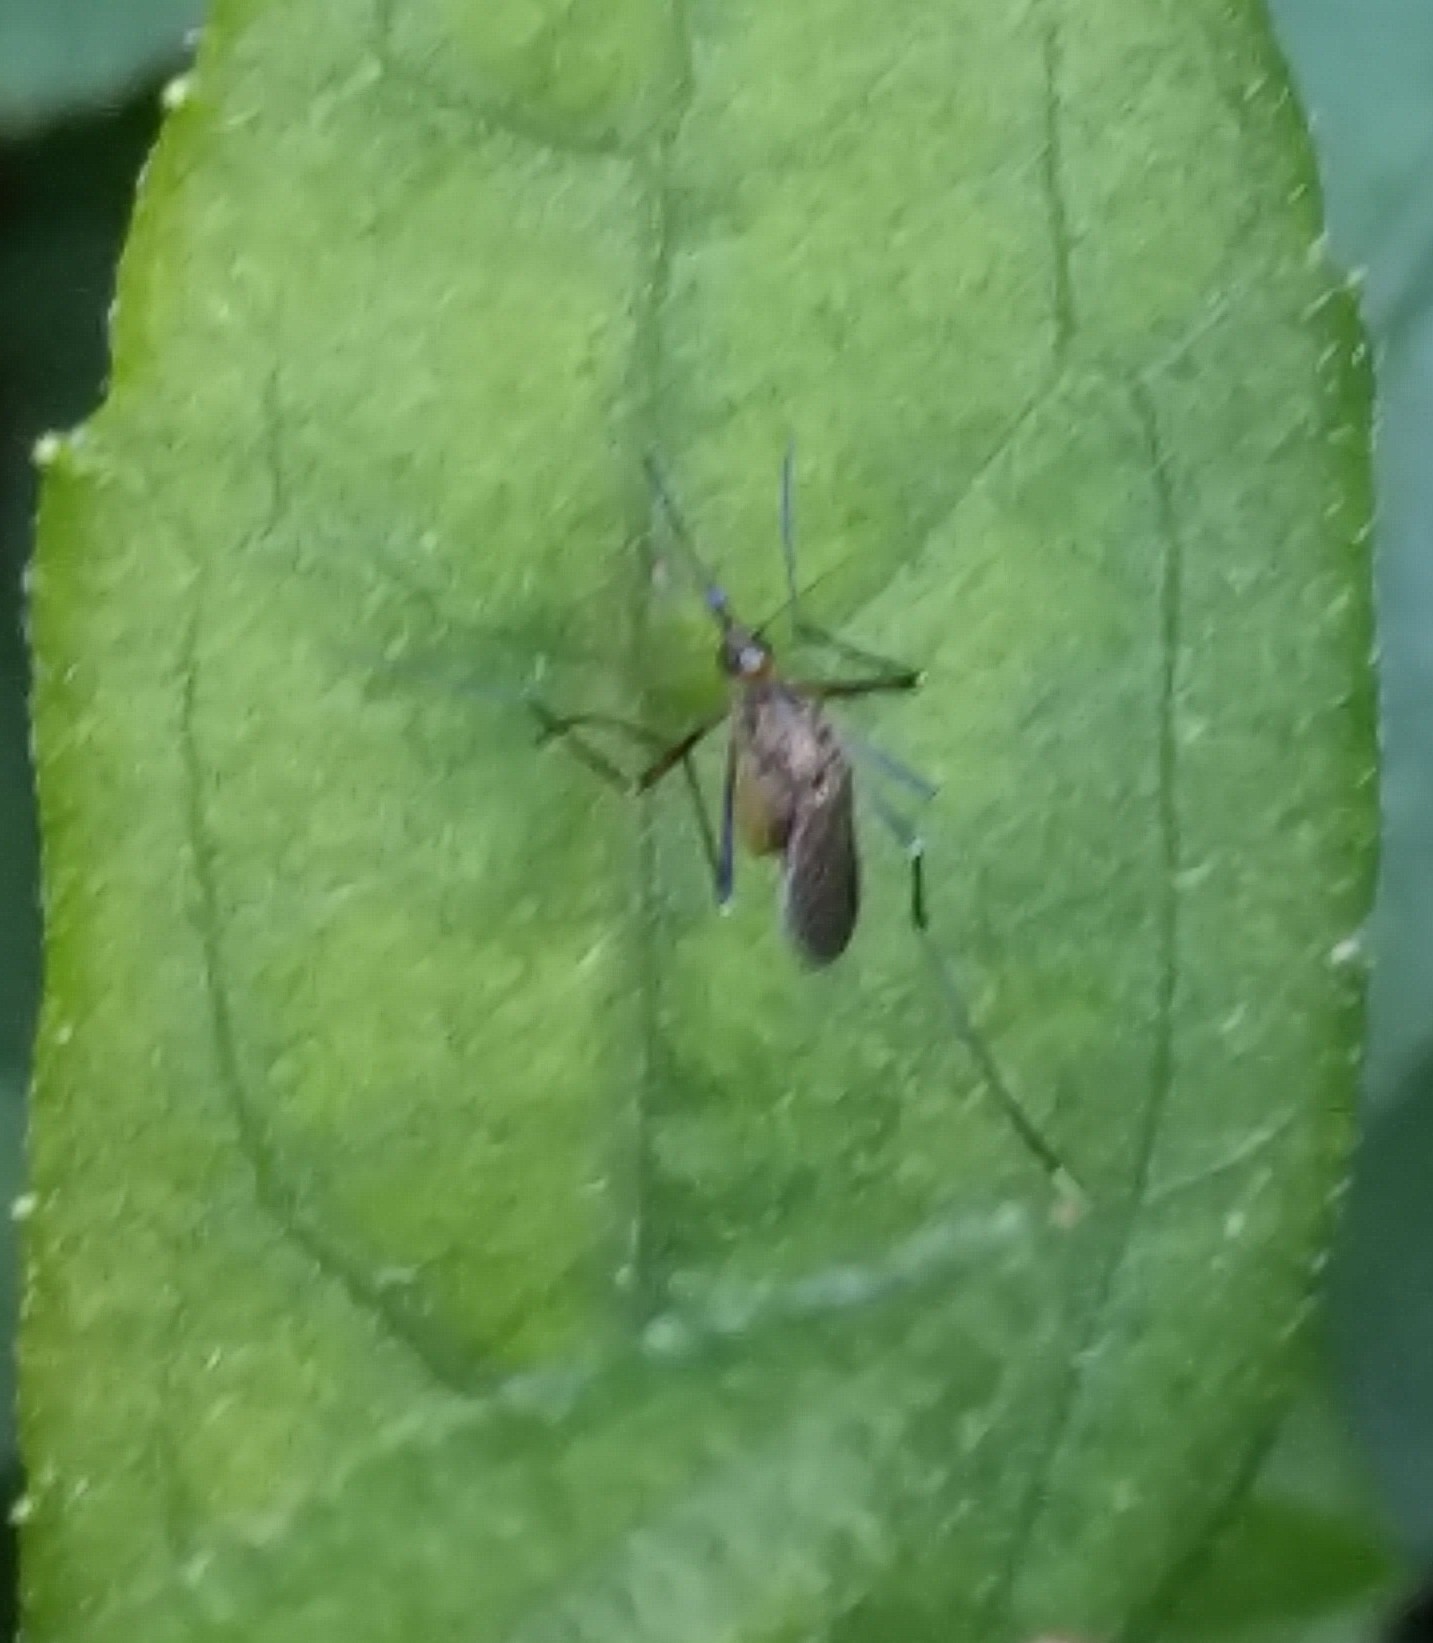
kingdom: Animalia
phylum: Arthropoda
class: Insecta
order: Diptera
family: Culicidae
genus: Psorophora
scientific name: Psorophora ferox
